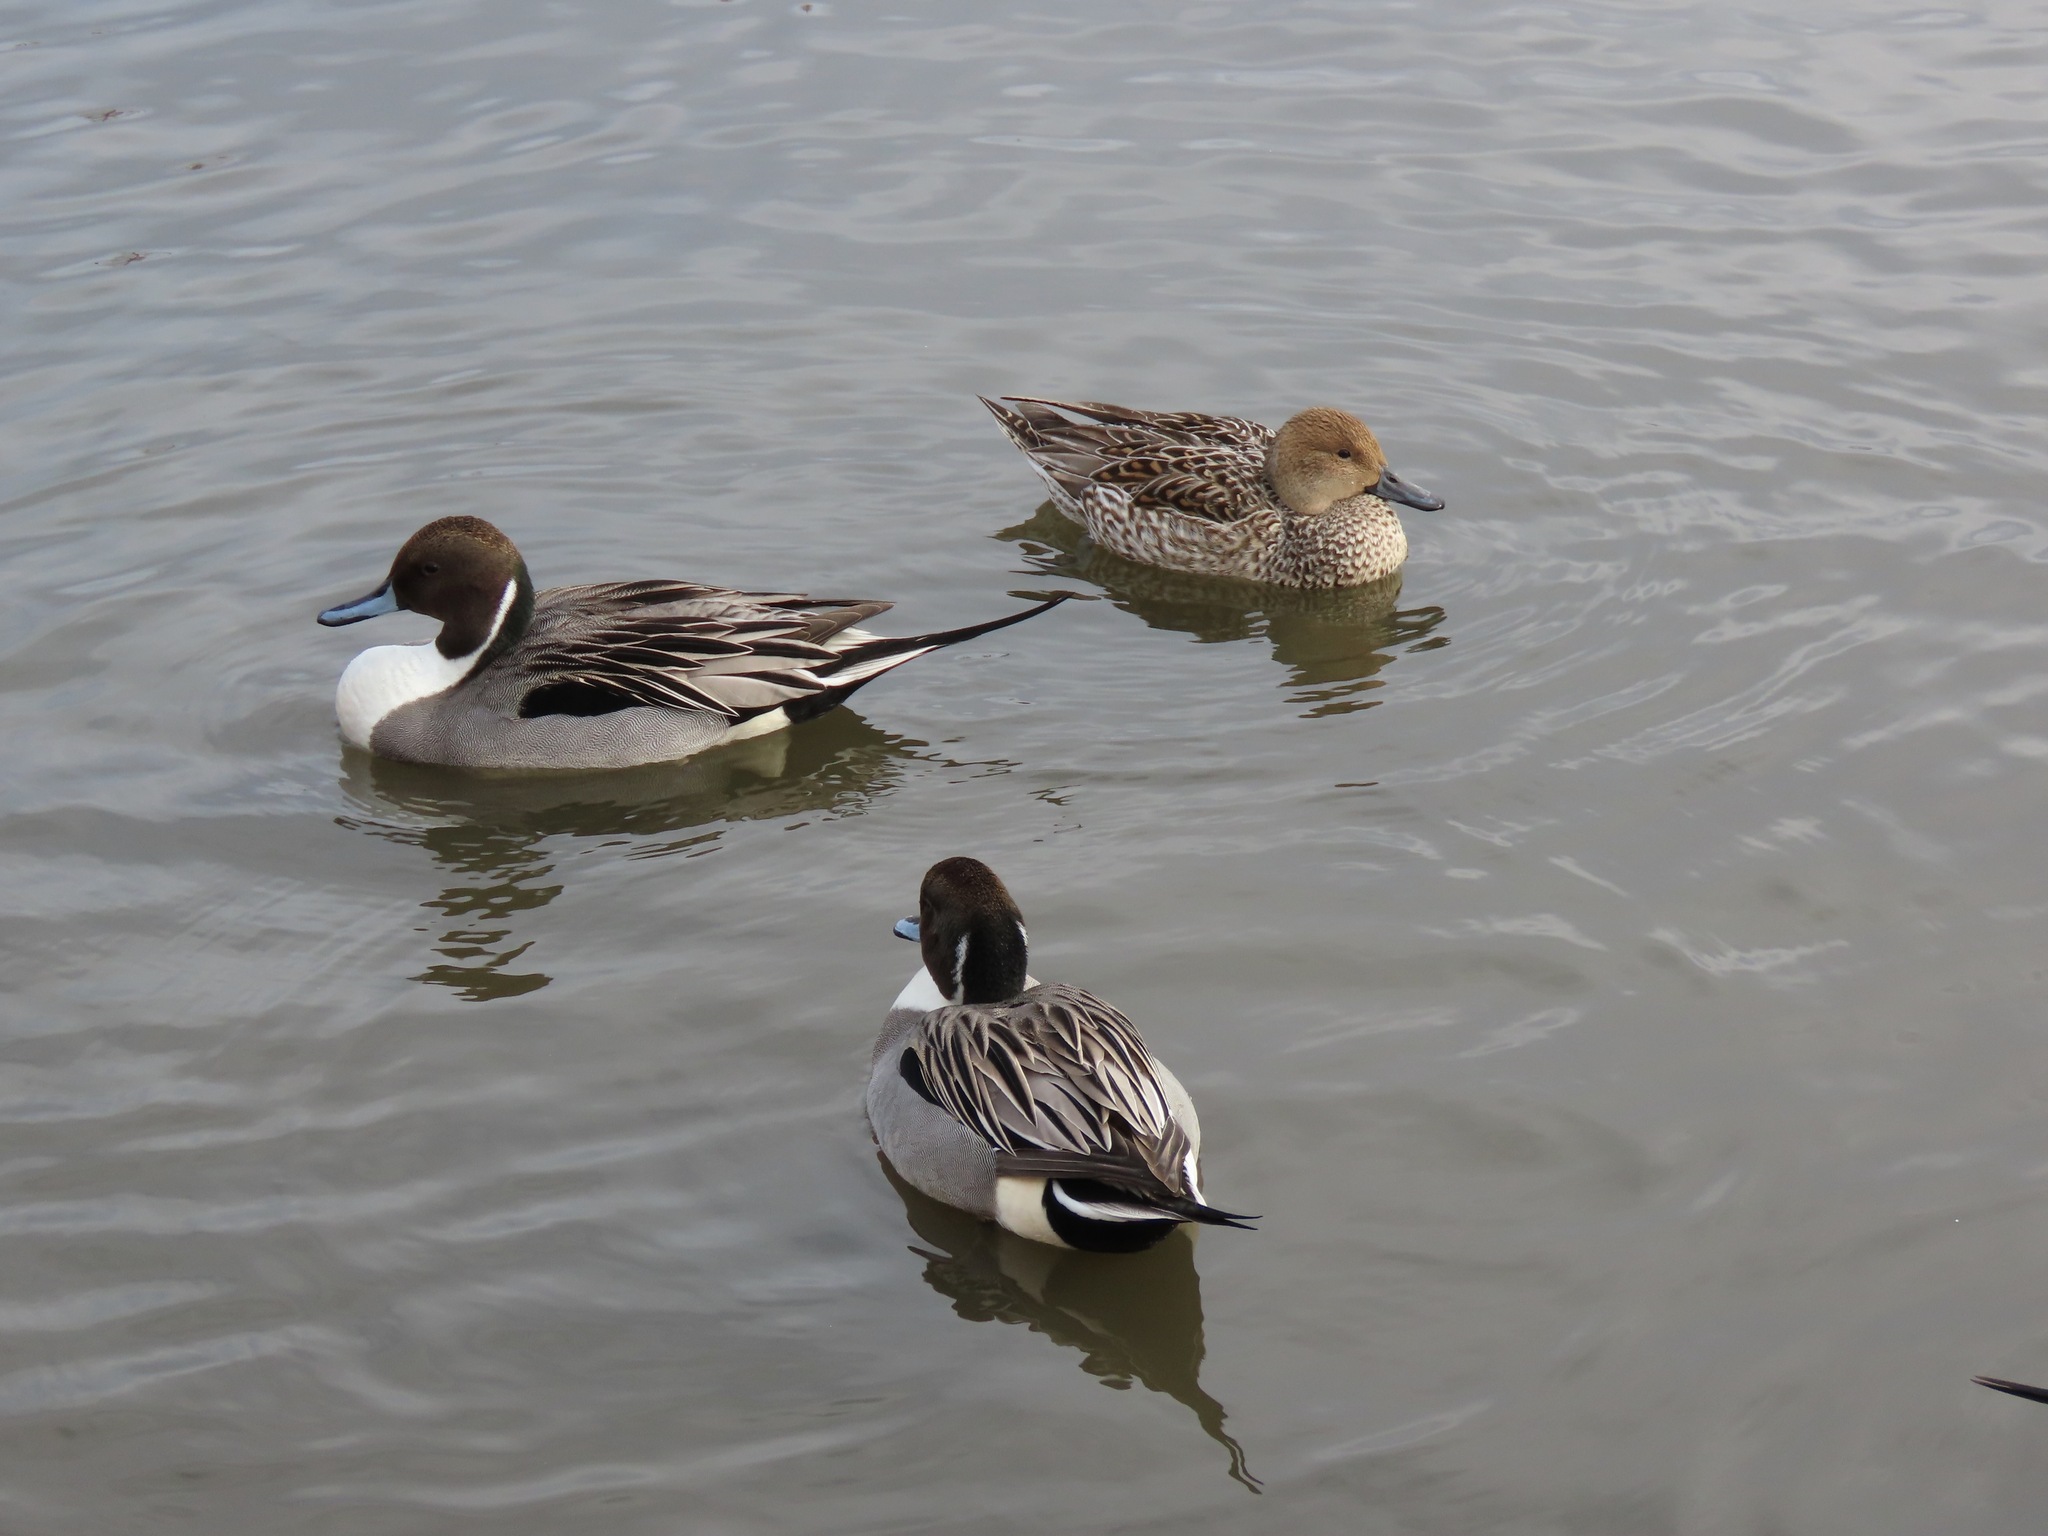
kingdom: Animalia
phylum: Chordata
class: Aves
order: Anseriformes
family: Anatidae
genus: Anas
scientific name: Anas acuta
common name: Northern pintail
